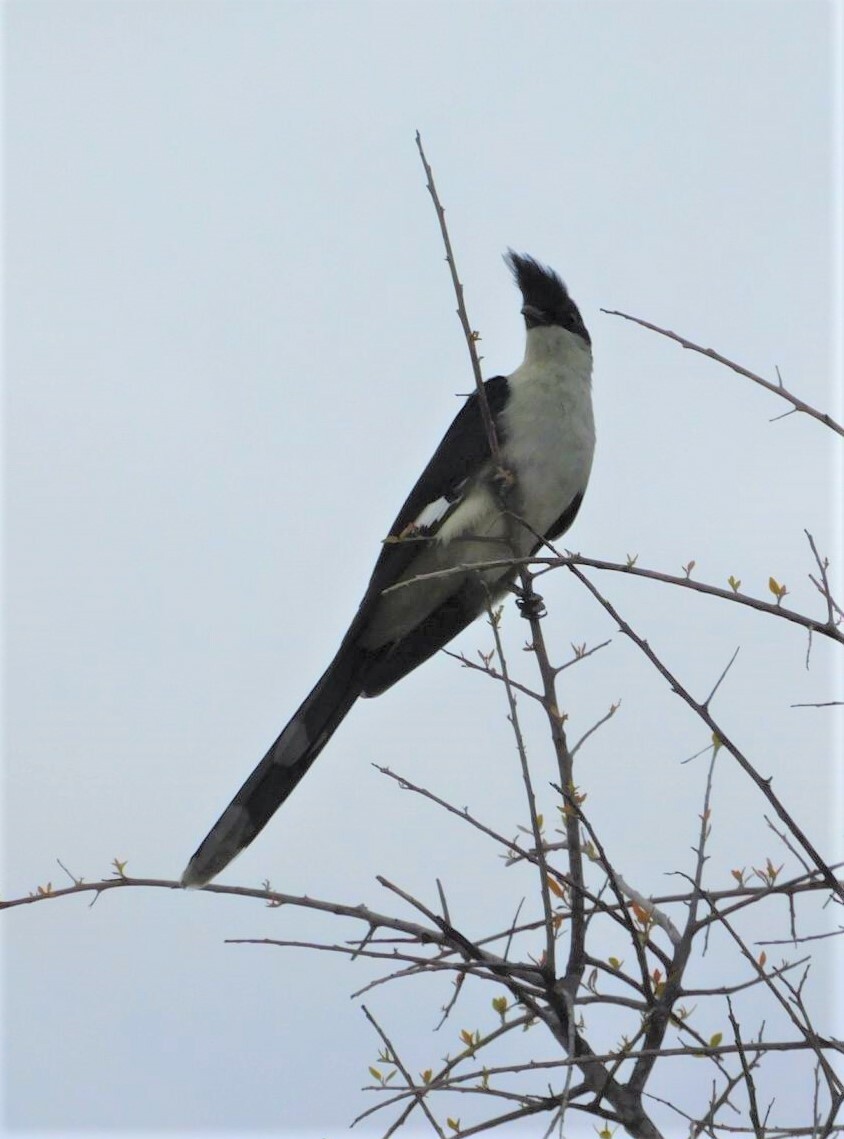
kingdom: Animalia
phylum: Chordata
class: Aves
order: Cuculiformes
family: Cuculidae
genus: Clamator
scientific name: Clamator jacobinus
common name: Jacobin cuckoo
